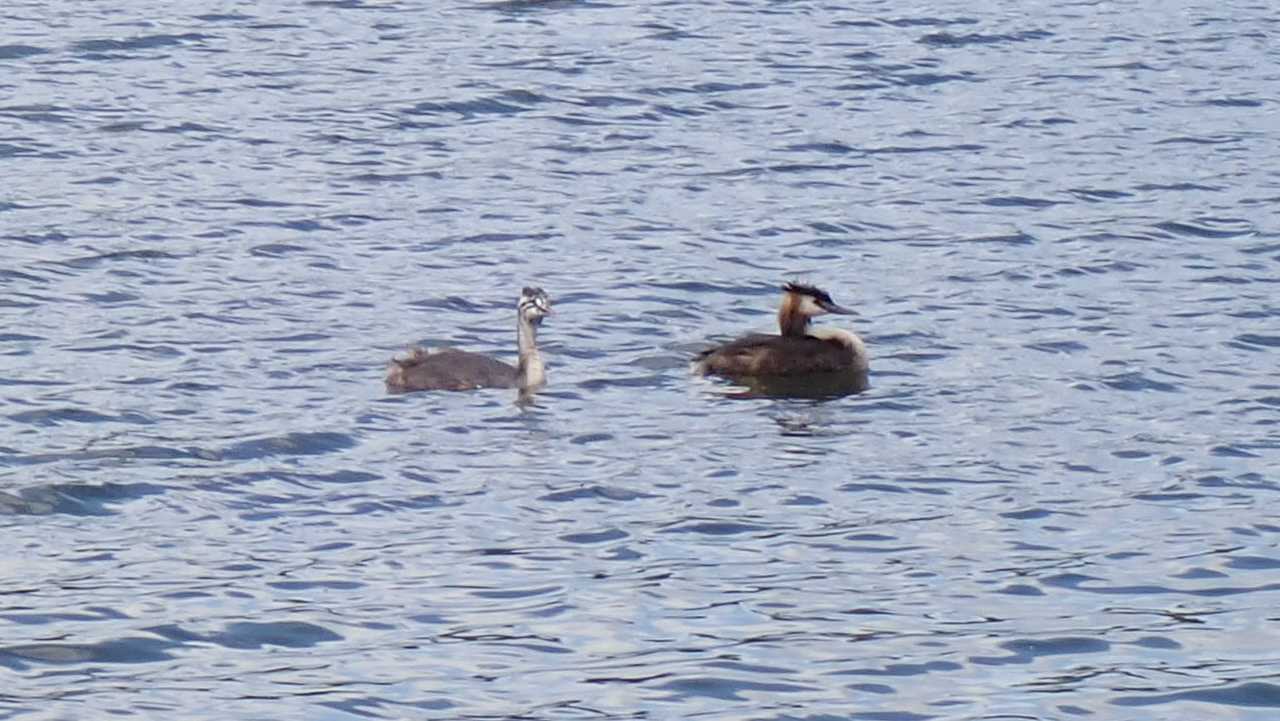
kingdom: Animalia
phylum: Chordata
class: Aves
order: Podicipediformes
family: Podicipedidae
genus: Podiceps
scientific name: Podiceps cristatus
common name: Great crested grebe
